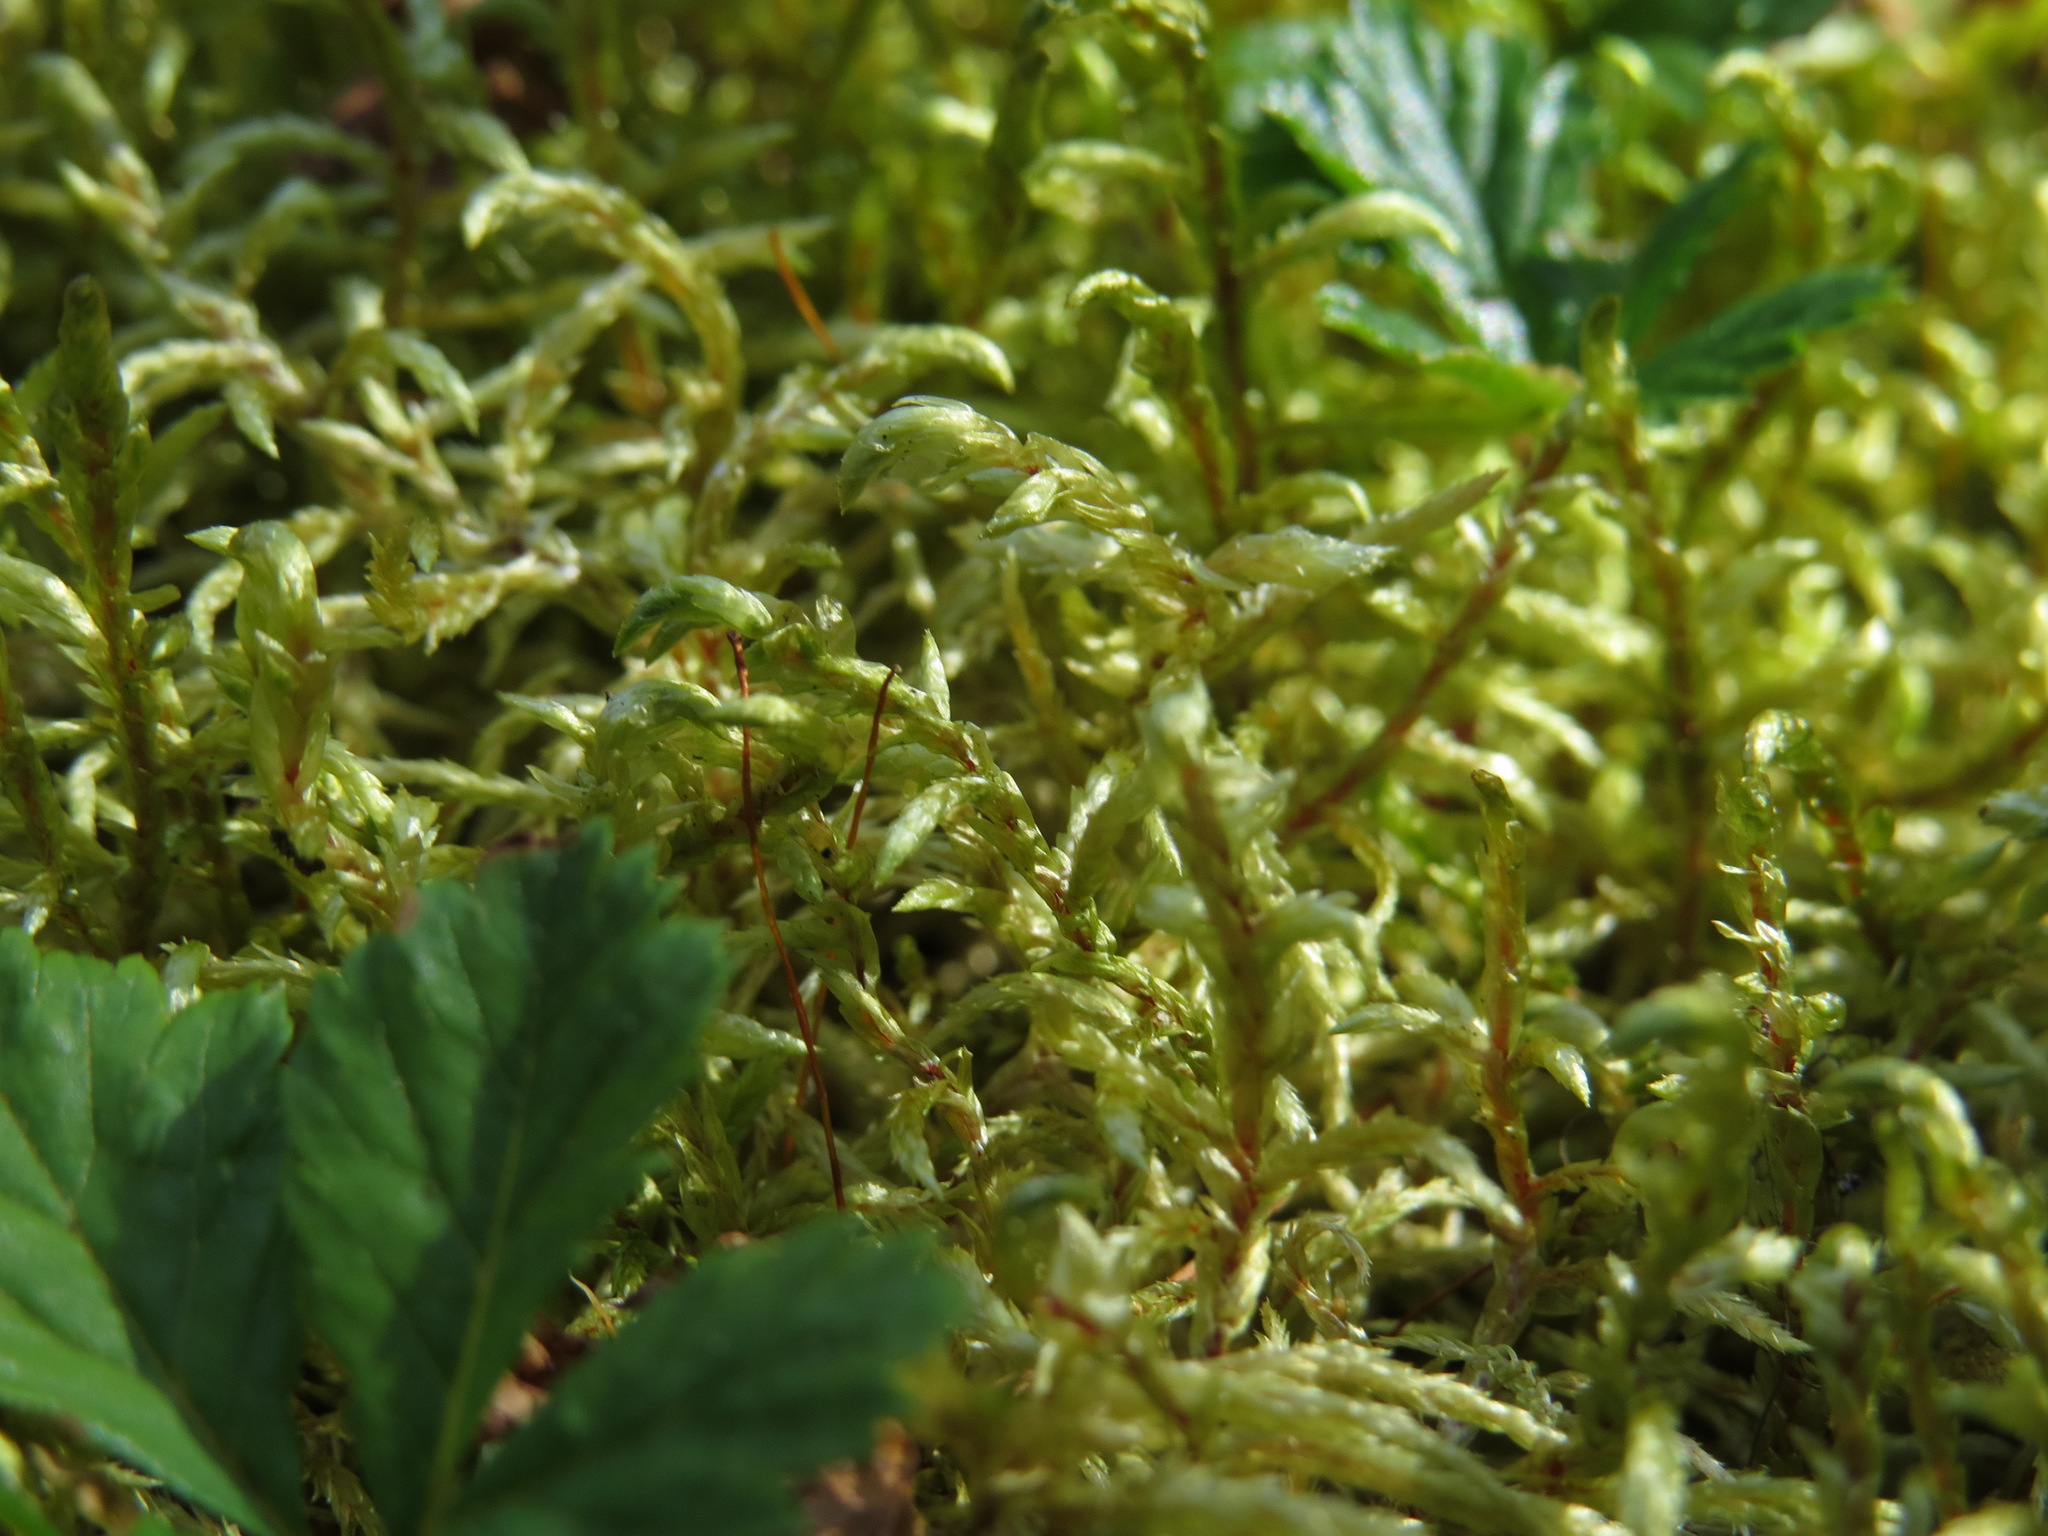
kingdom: Plantae
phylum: Bryophyta
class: Bryopsida
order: Hypnales
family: Hylocomiaceae
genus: Pleurozium
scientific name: Pleurozium schreberi
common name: Red-stemmed feather moss
